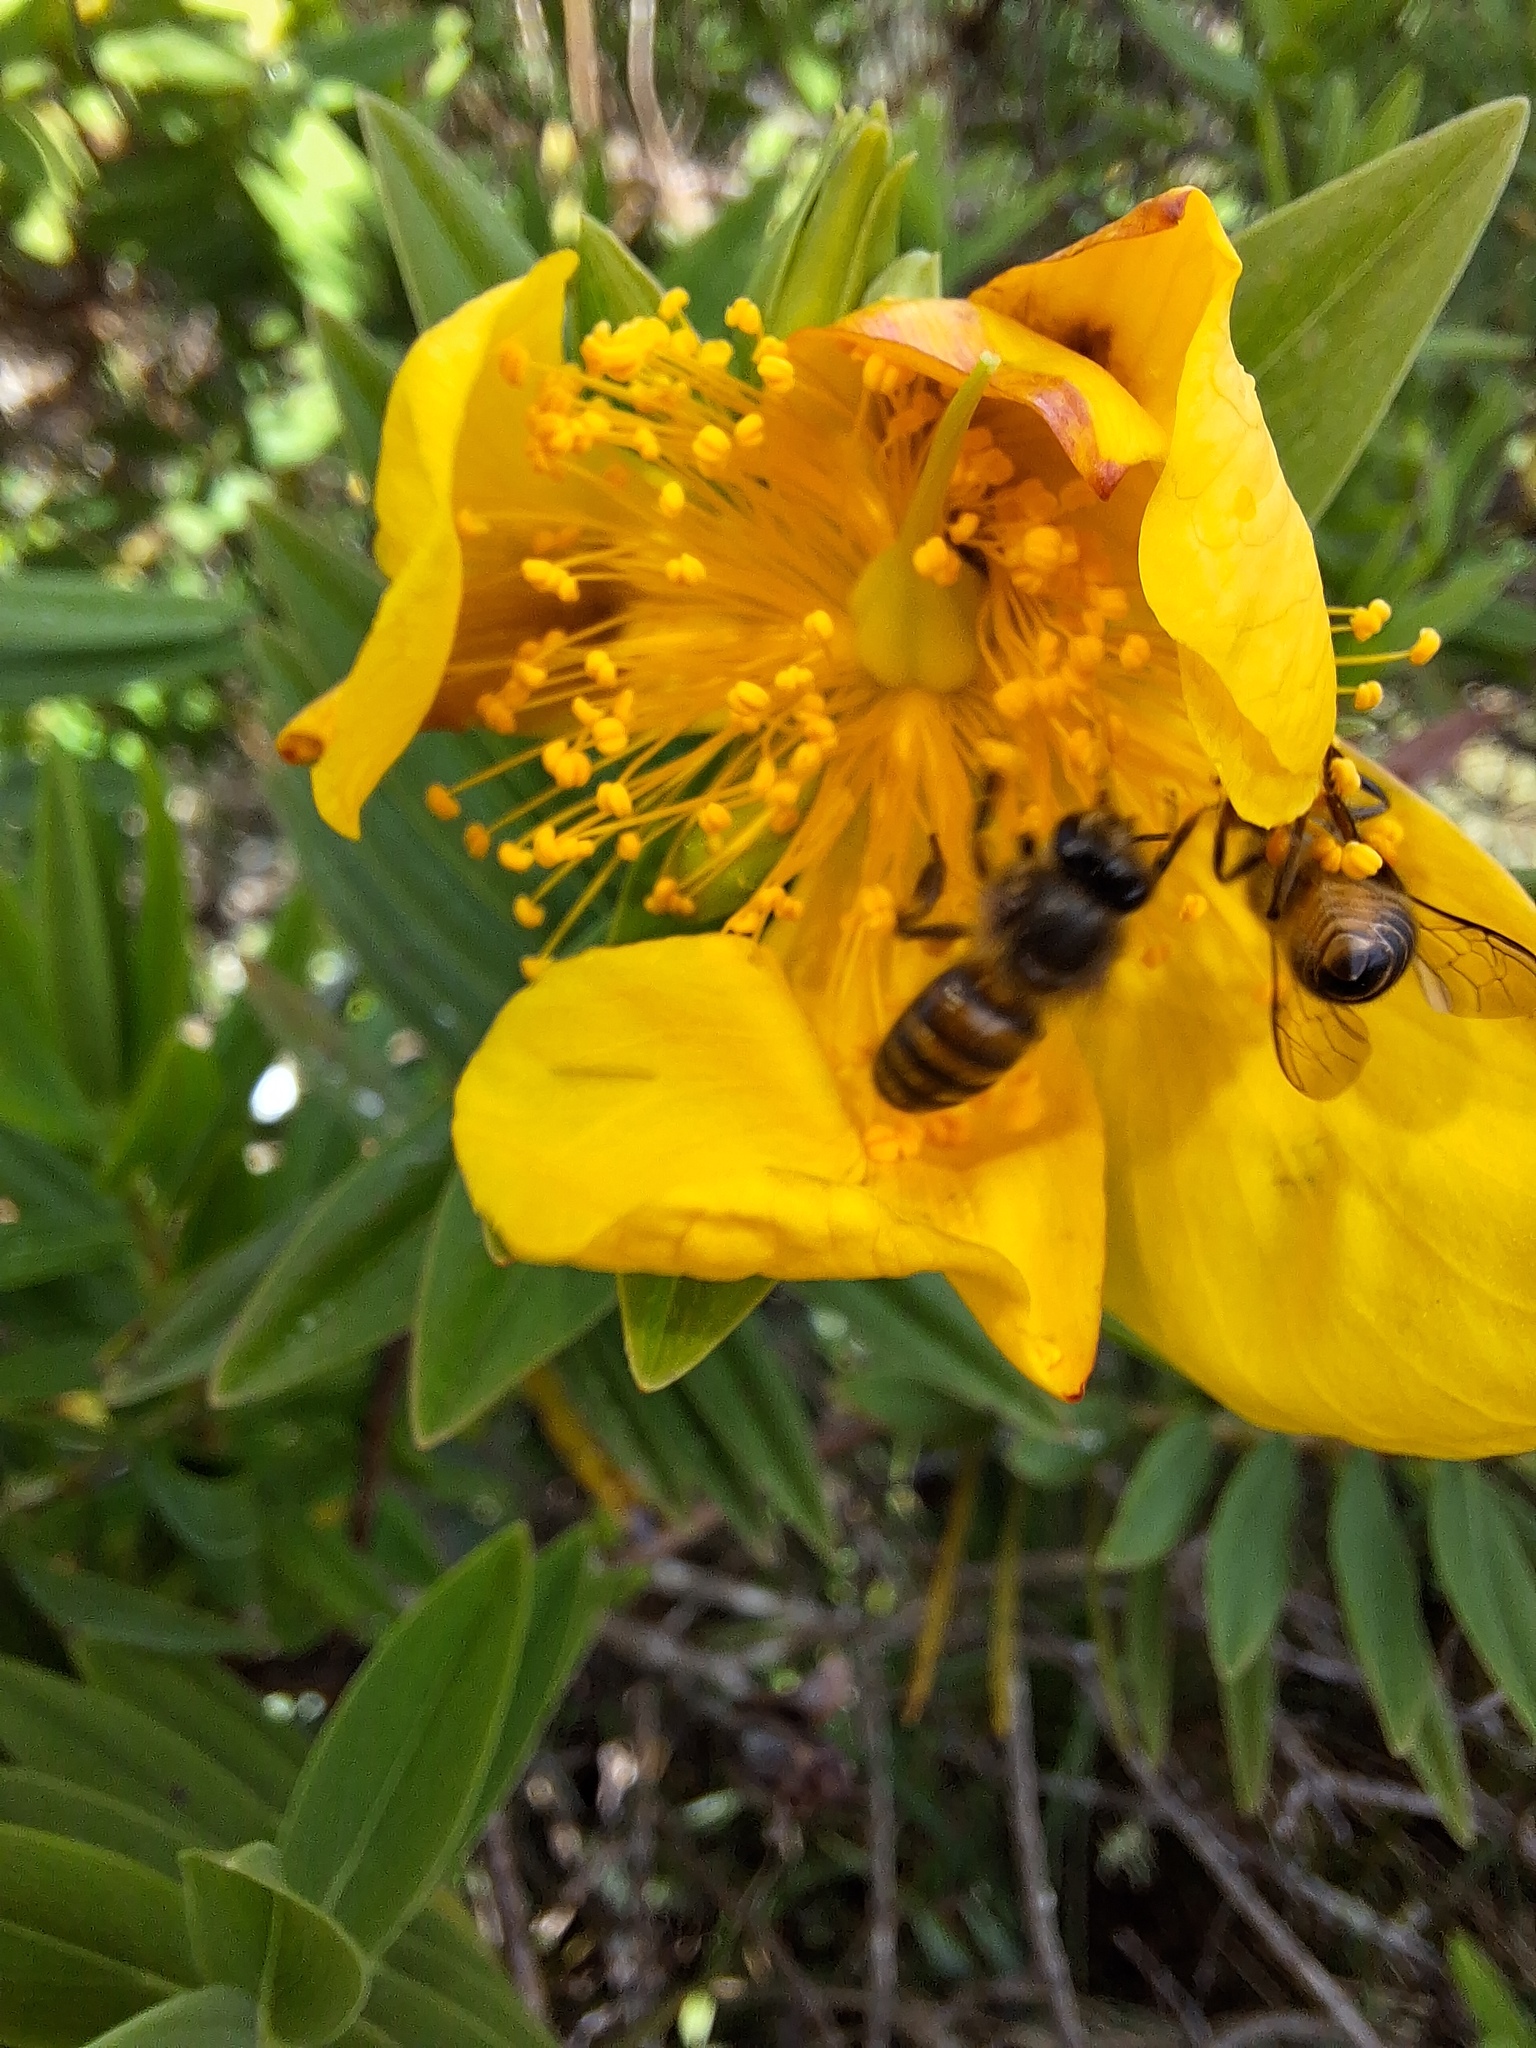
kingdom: Animalia
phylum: Arthropoda
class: Insecta
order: Hymenoptera
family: Apidae
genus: Apis
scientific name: Apis cerana
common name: Honey bee
